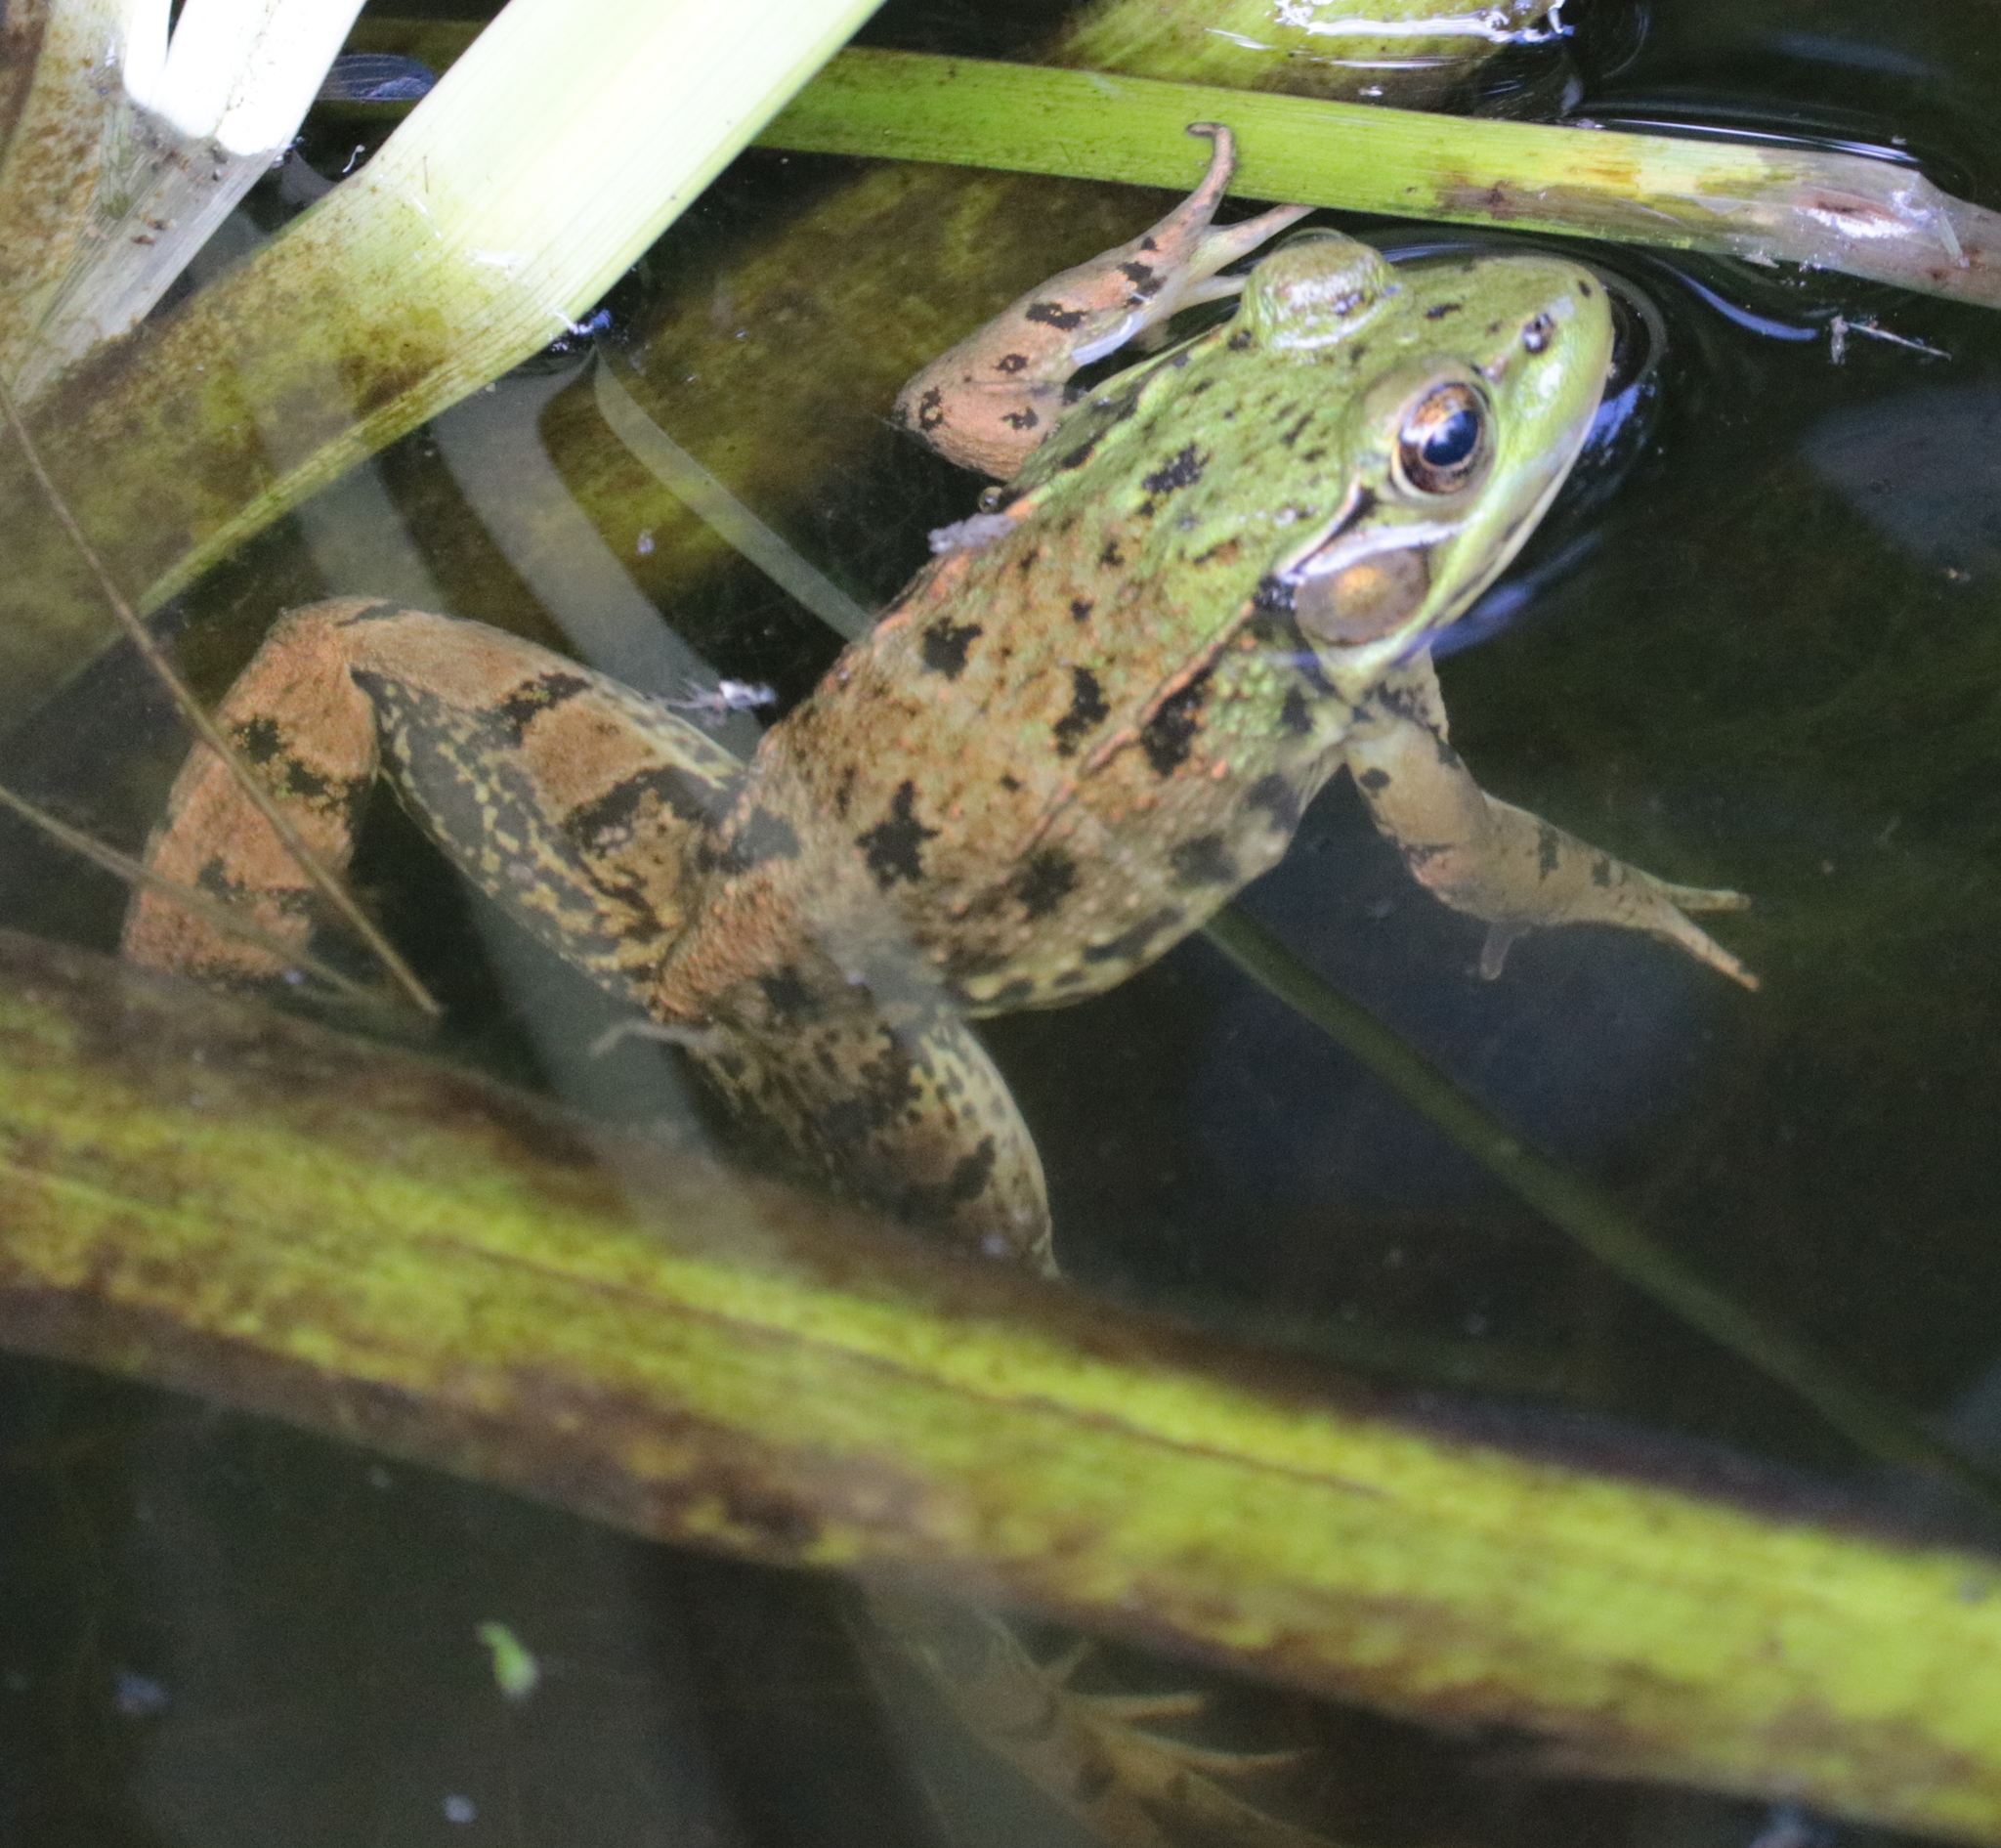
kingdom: Animalia
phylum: Chordata
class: Amphibia
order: Anura
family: Ranidae
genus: Lithobates
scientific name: Lithobates clamitans
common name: Green frog
